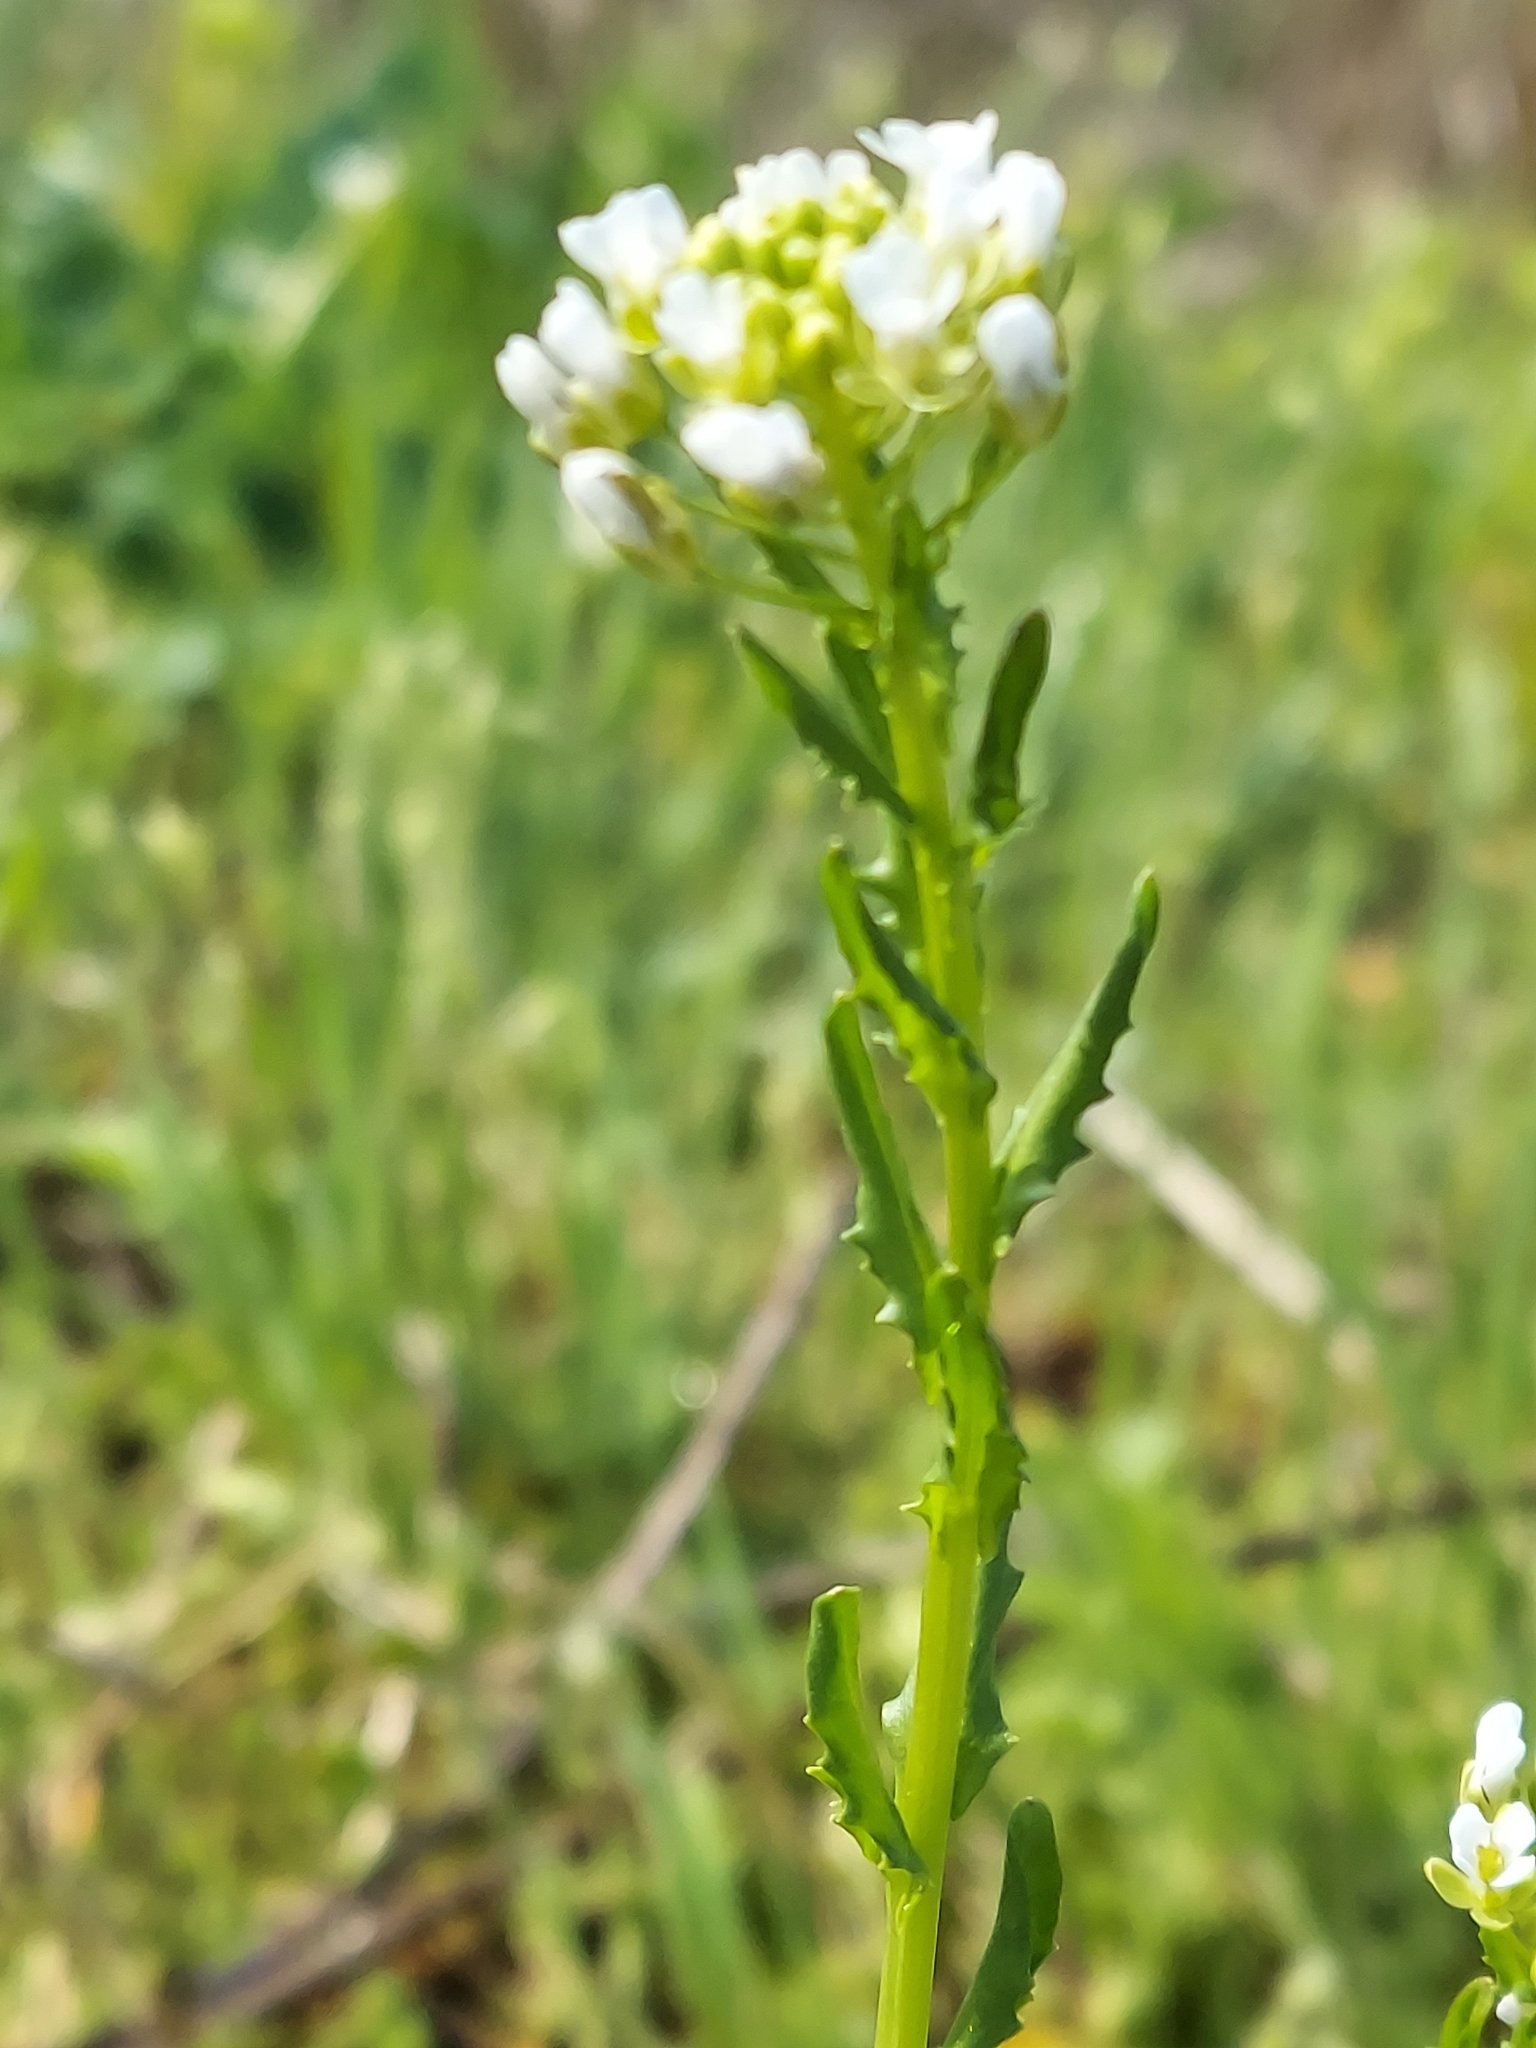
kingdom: Plantae
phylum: Tracheophyta
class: Magnoliopsida
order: Brassicales
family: Brassicaceae
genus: Thlaspi
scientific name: Thlaspi arvense
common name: Field pennycress
